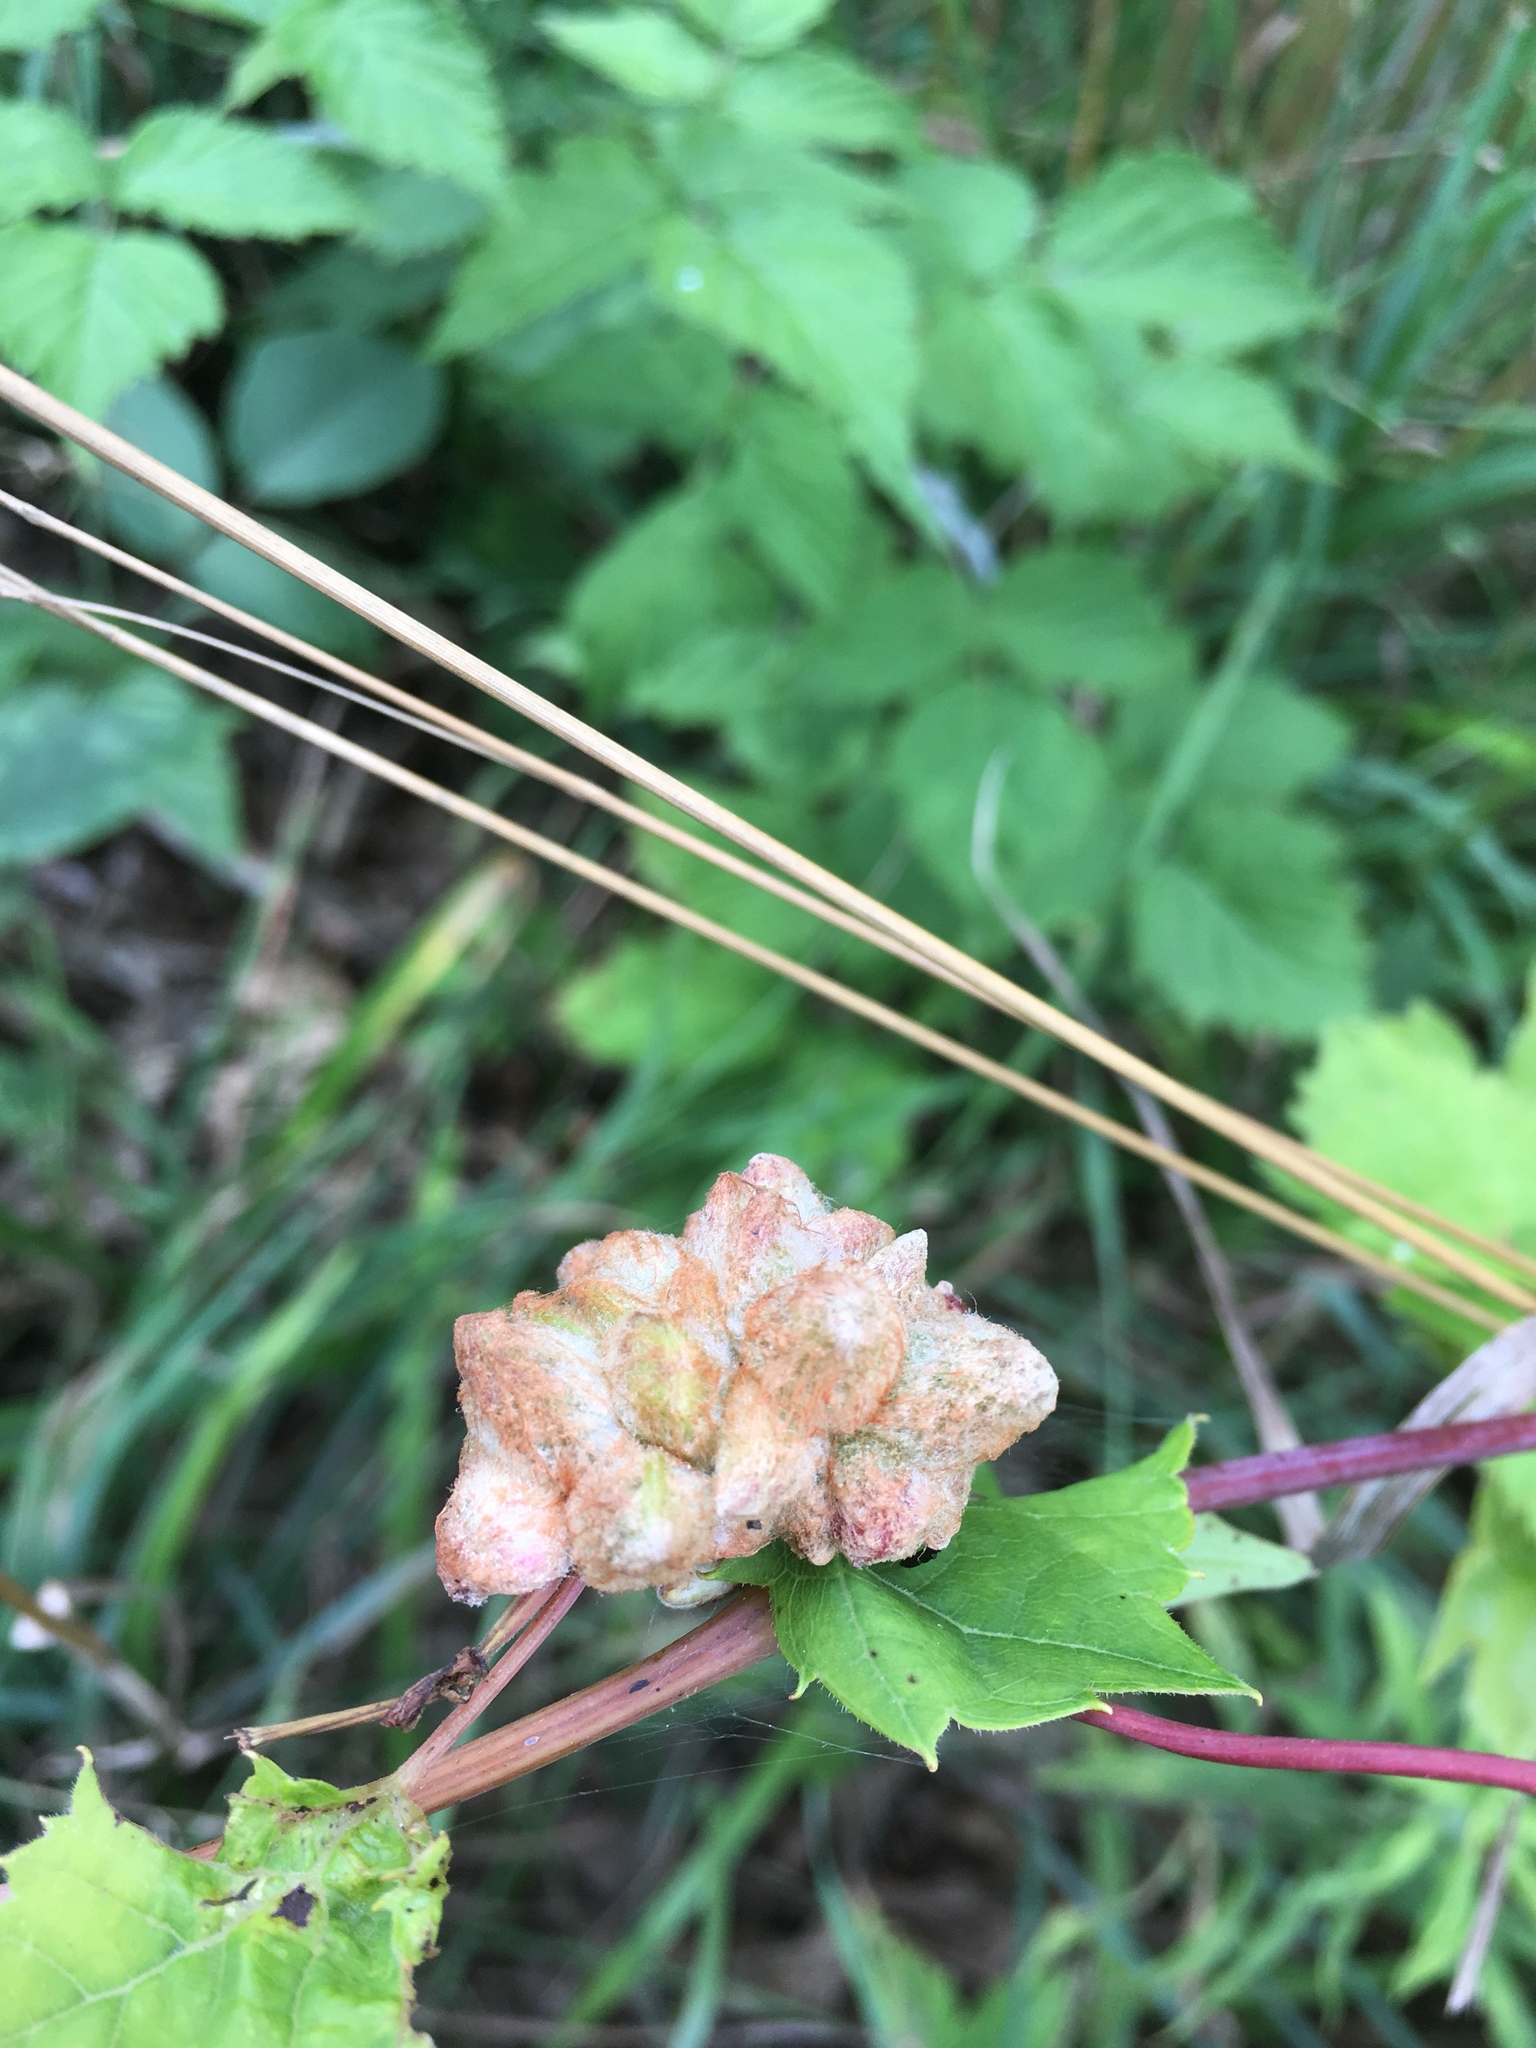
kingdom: Animalia
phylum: Arthropoda
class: Insecta
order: Diptera
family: Cecidomyiidae
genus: Ampelomyia
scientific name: Ampelomyia vitiscoryloides
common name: Grape filbert gall
